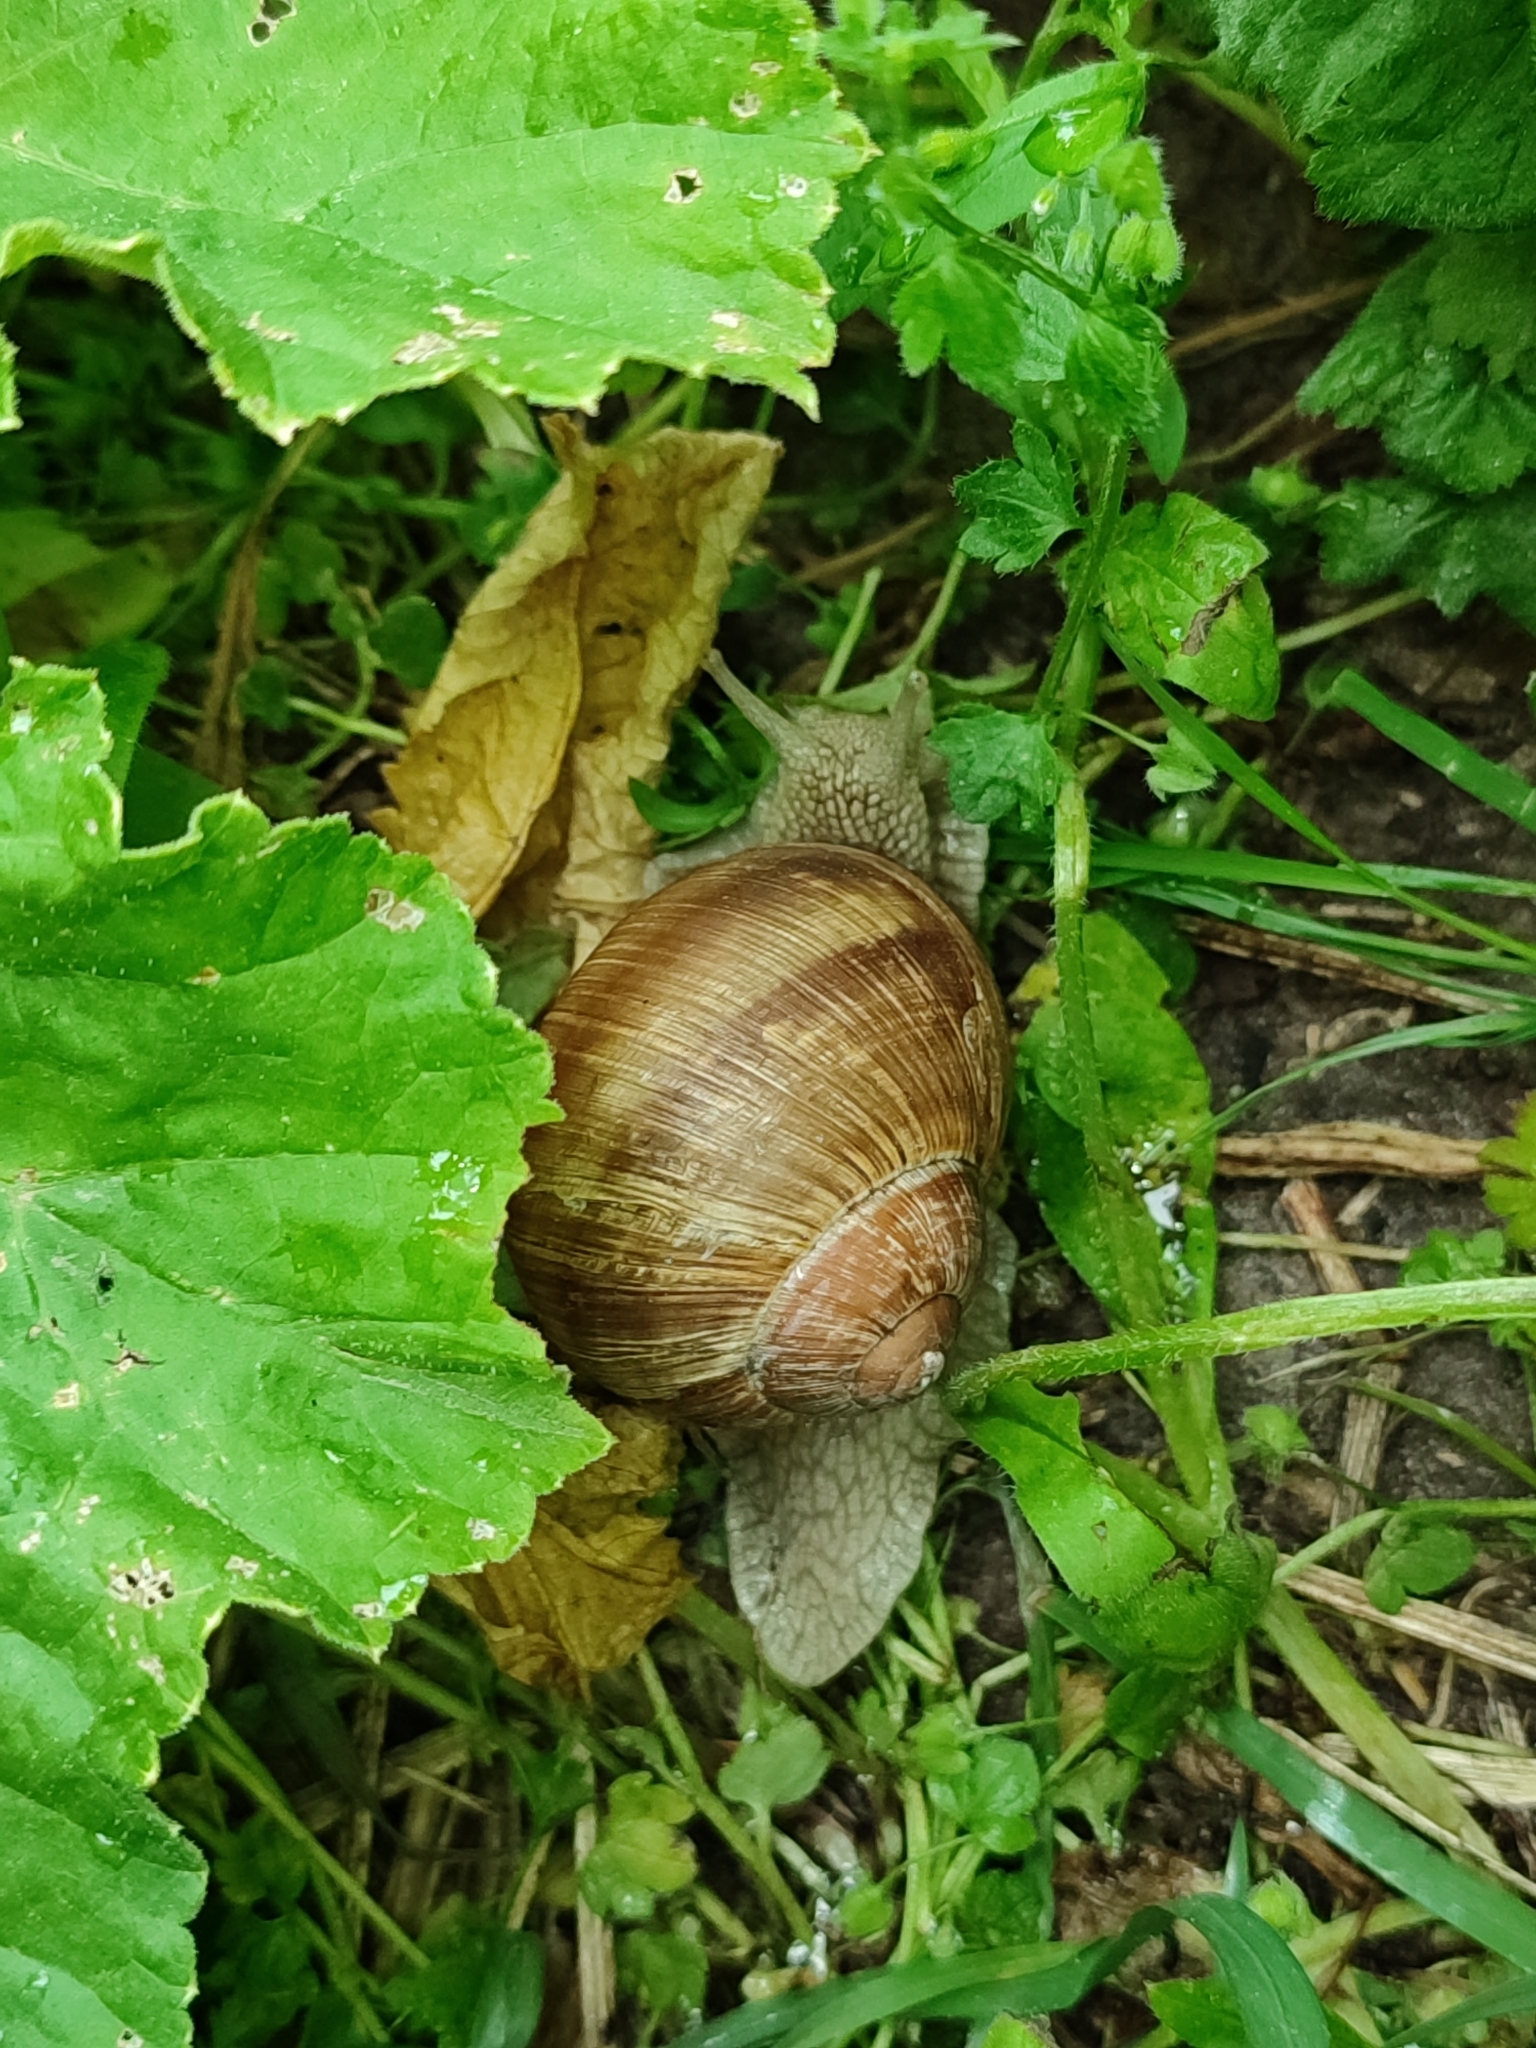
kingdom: Animalia
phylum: Mollusca
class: Gastropoda
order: Stylommatophora
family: Helicidae
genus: Helix
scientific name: Helix pomatia
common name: Roman snail
